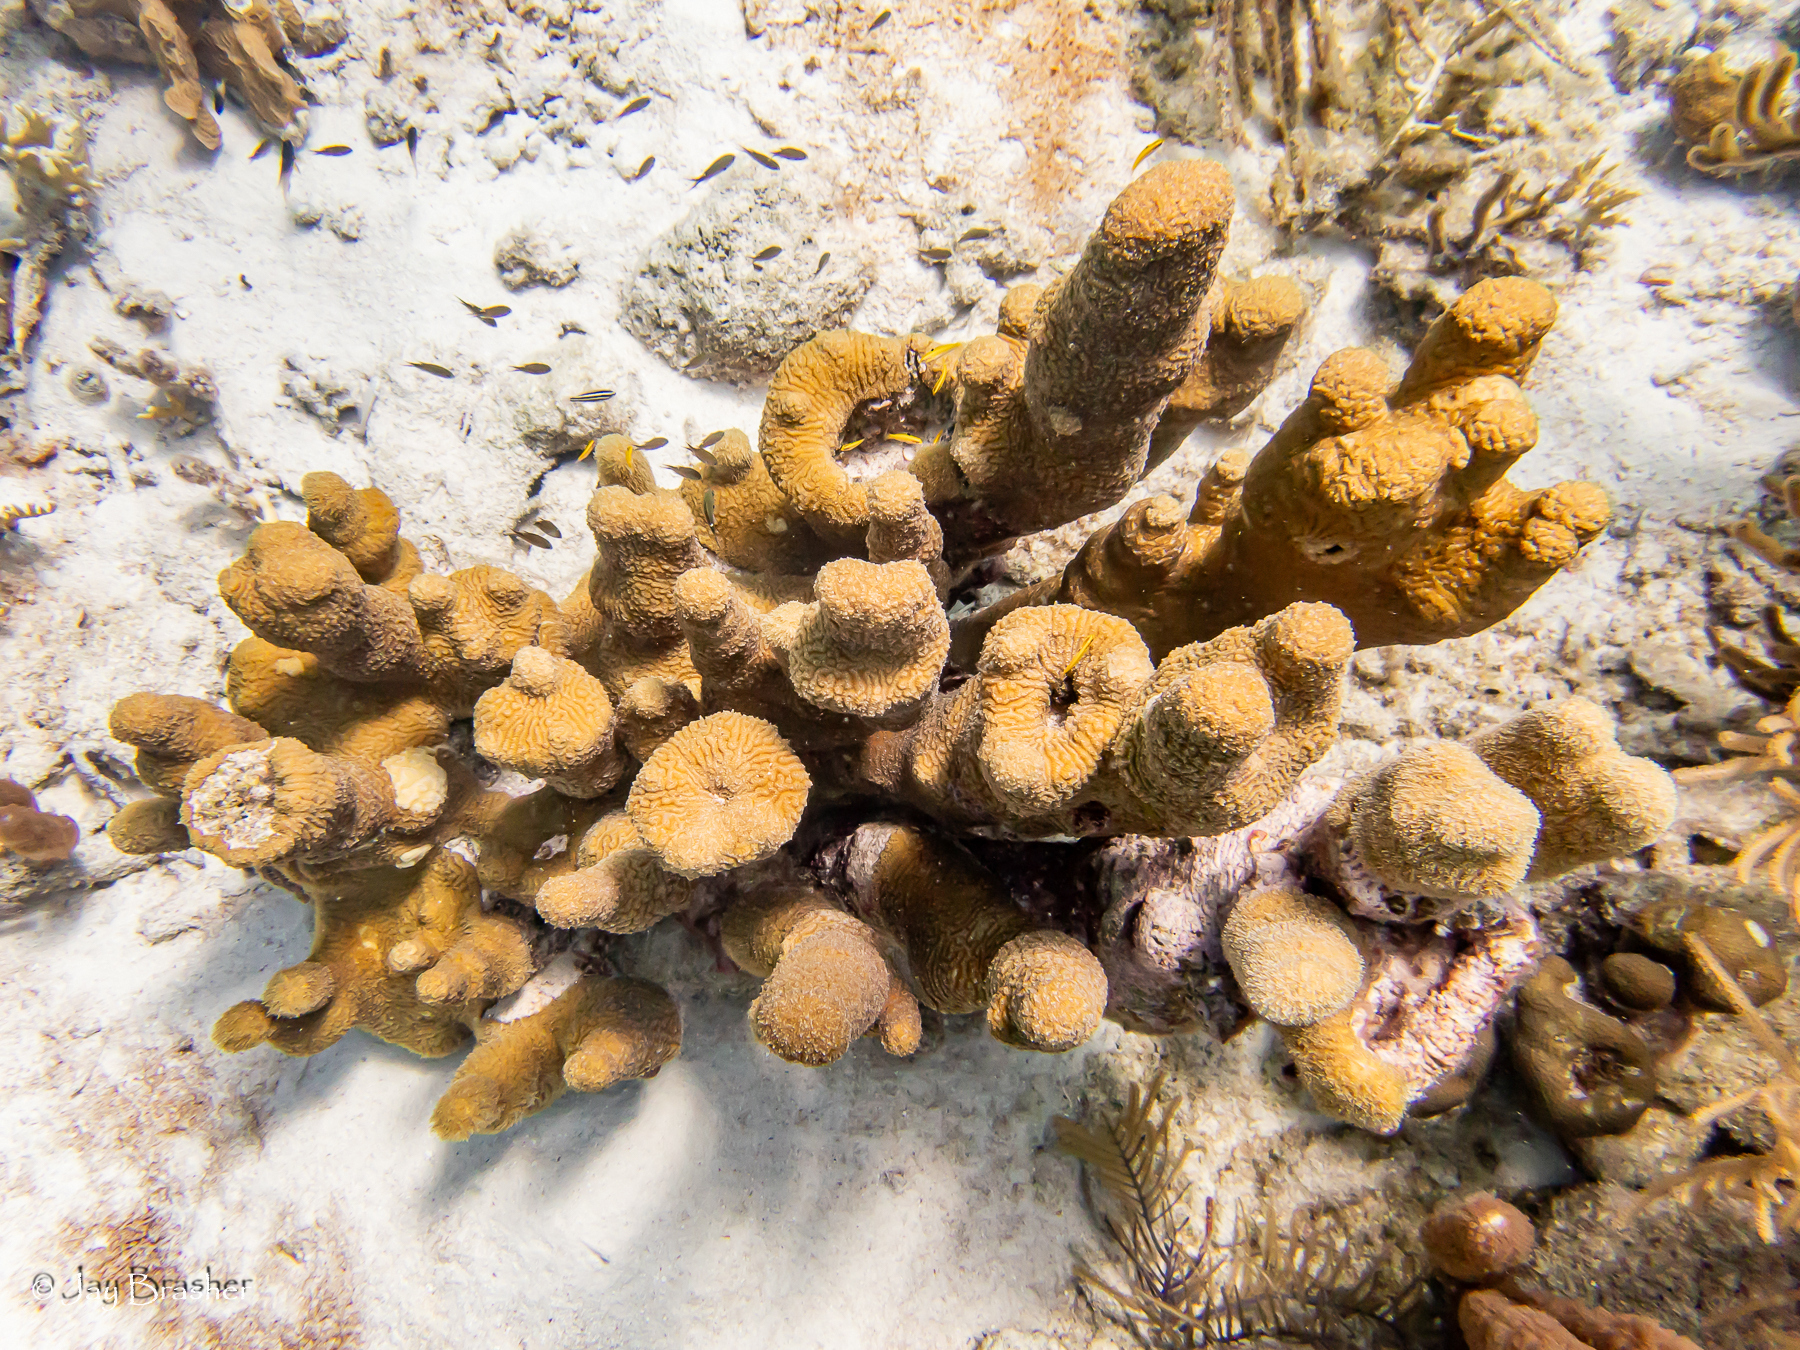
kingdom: Animalia
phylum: Cnidaria
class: Anthozoa
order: Scleractinia
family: Meandrinidae
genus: Dendrogyra
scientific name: Dendrogyra cylindrus
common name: Pillar coral
